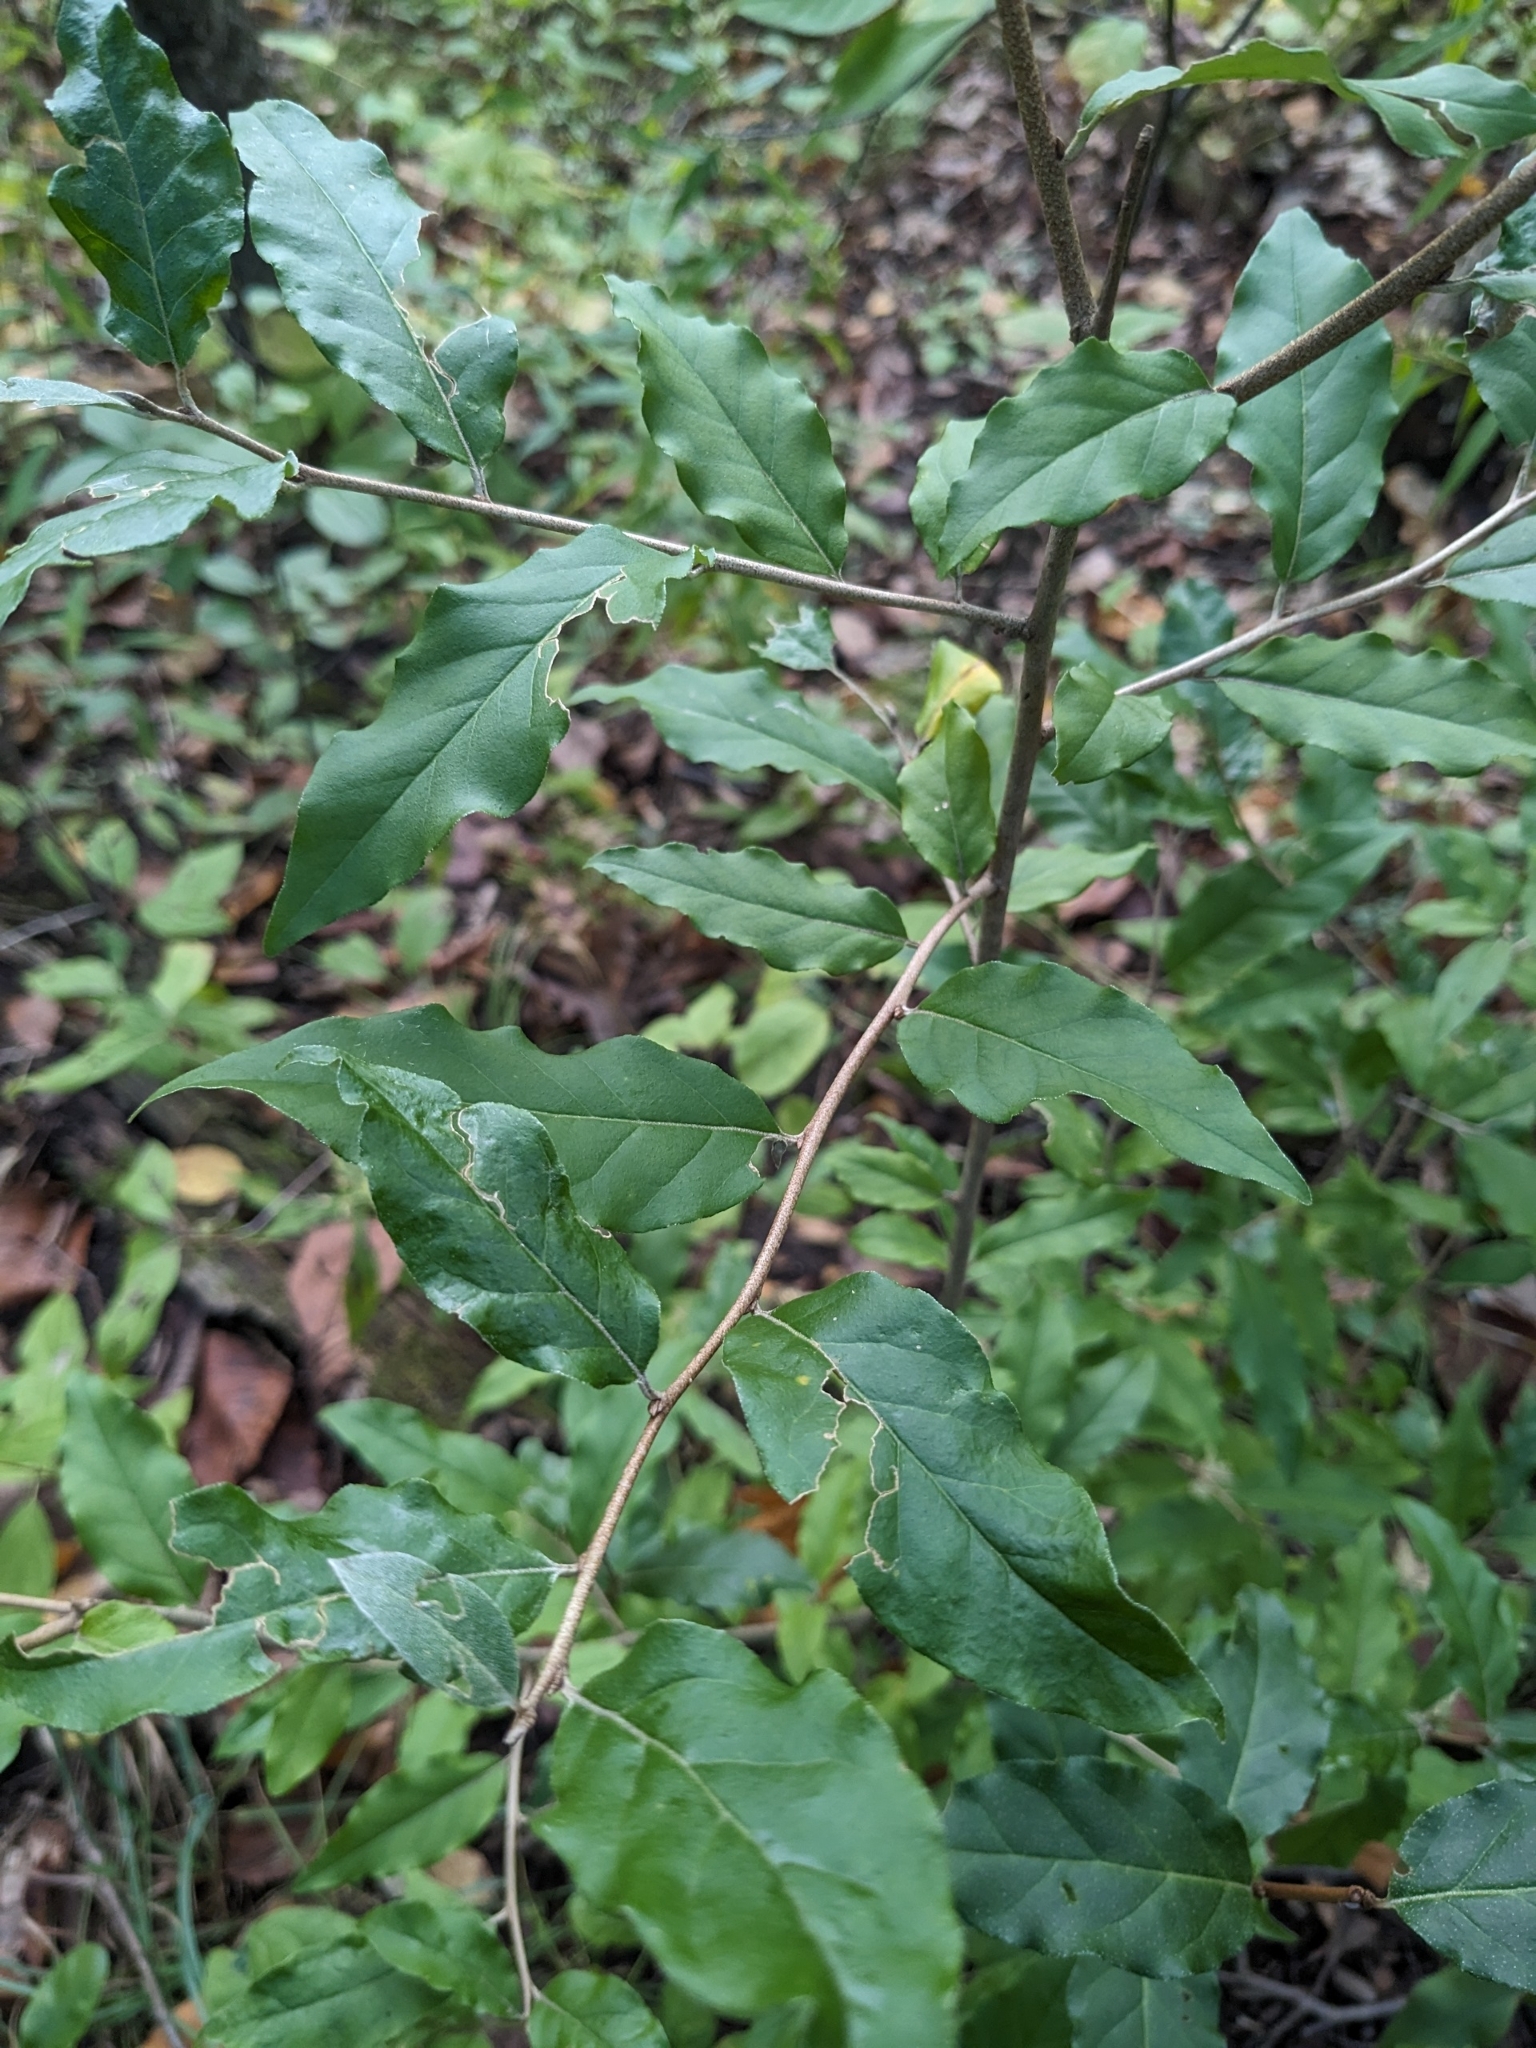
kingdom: Plantae
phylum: Tracheophyta
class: Magnoliopsida
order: Rosales
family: Elaeagnaceae
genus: Elaeagnus
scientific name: Elaeagnus umbellata
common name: Autumn olive
